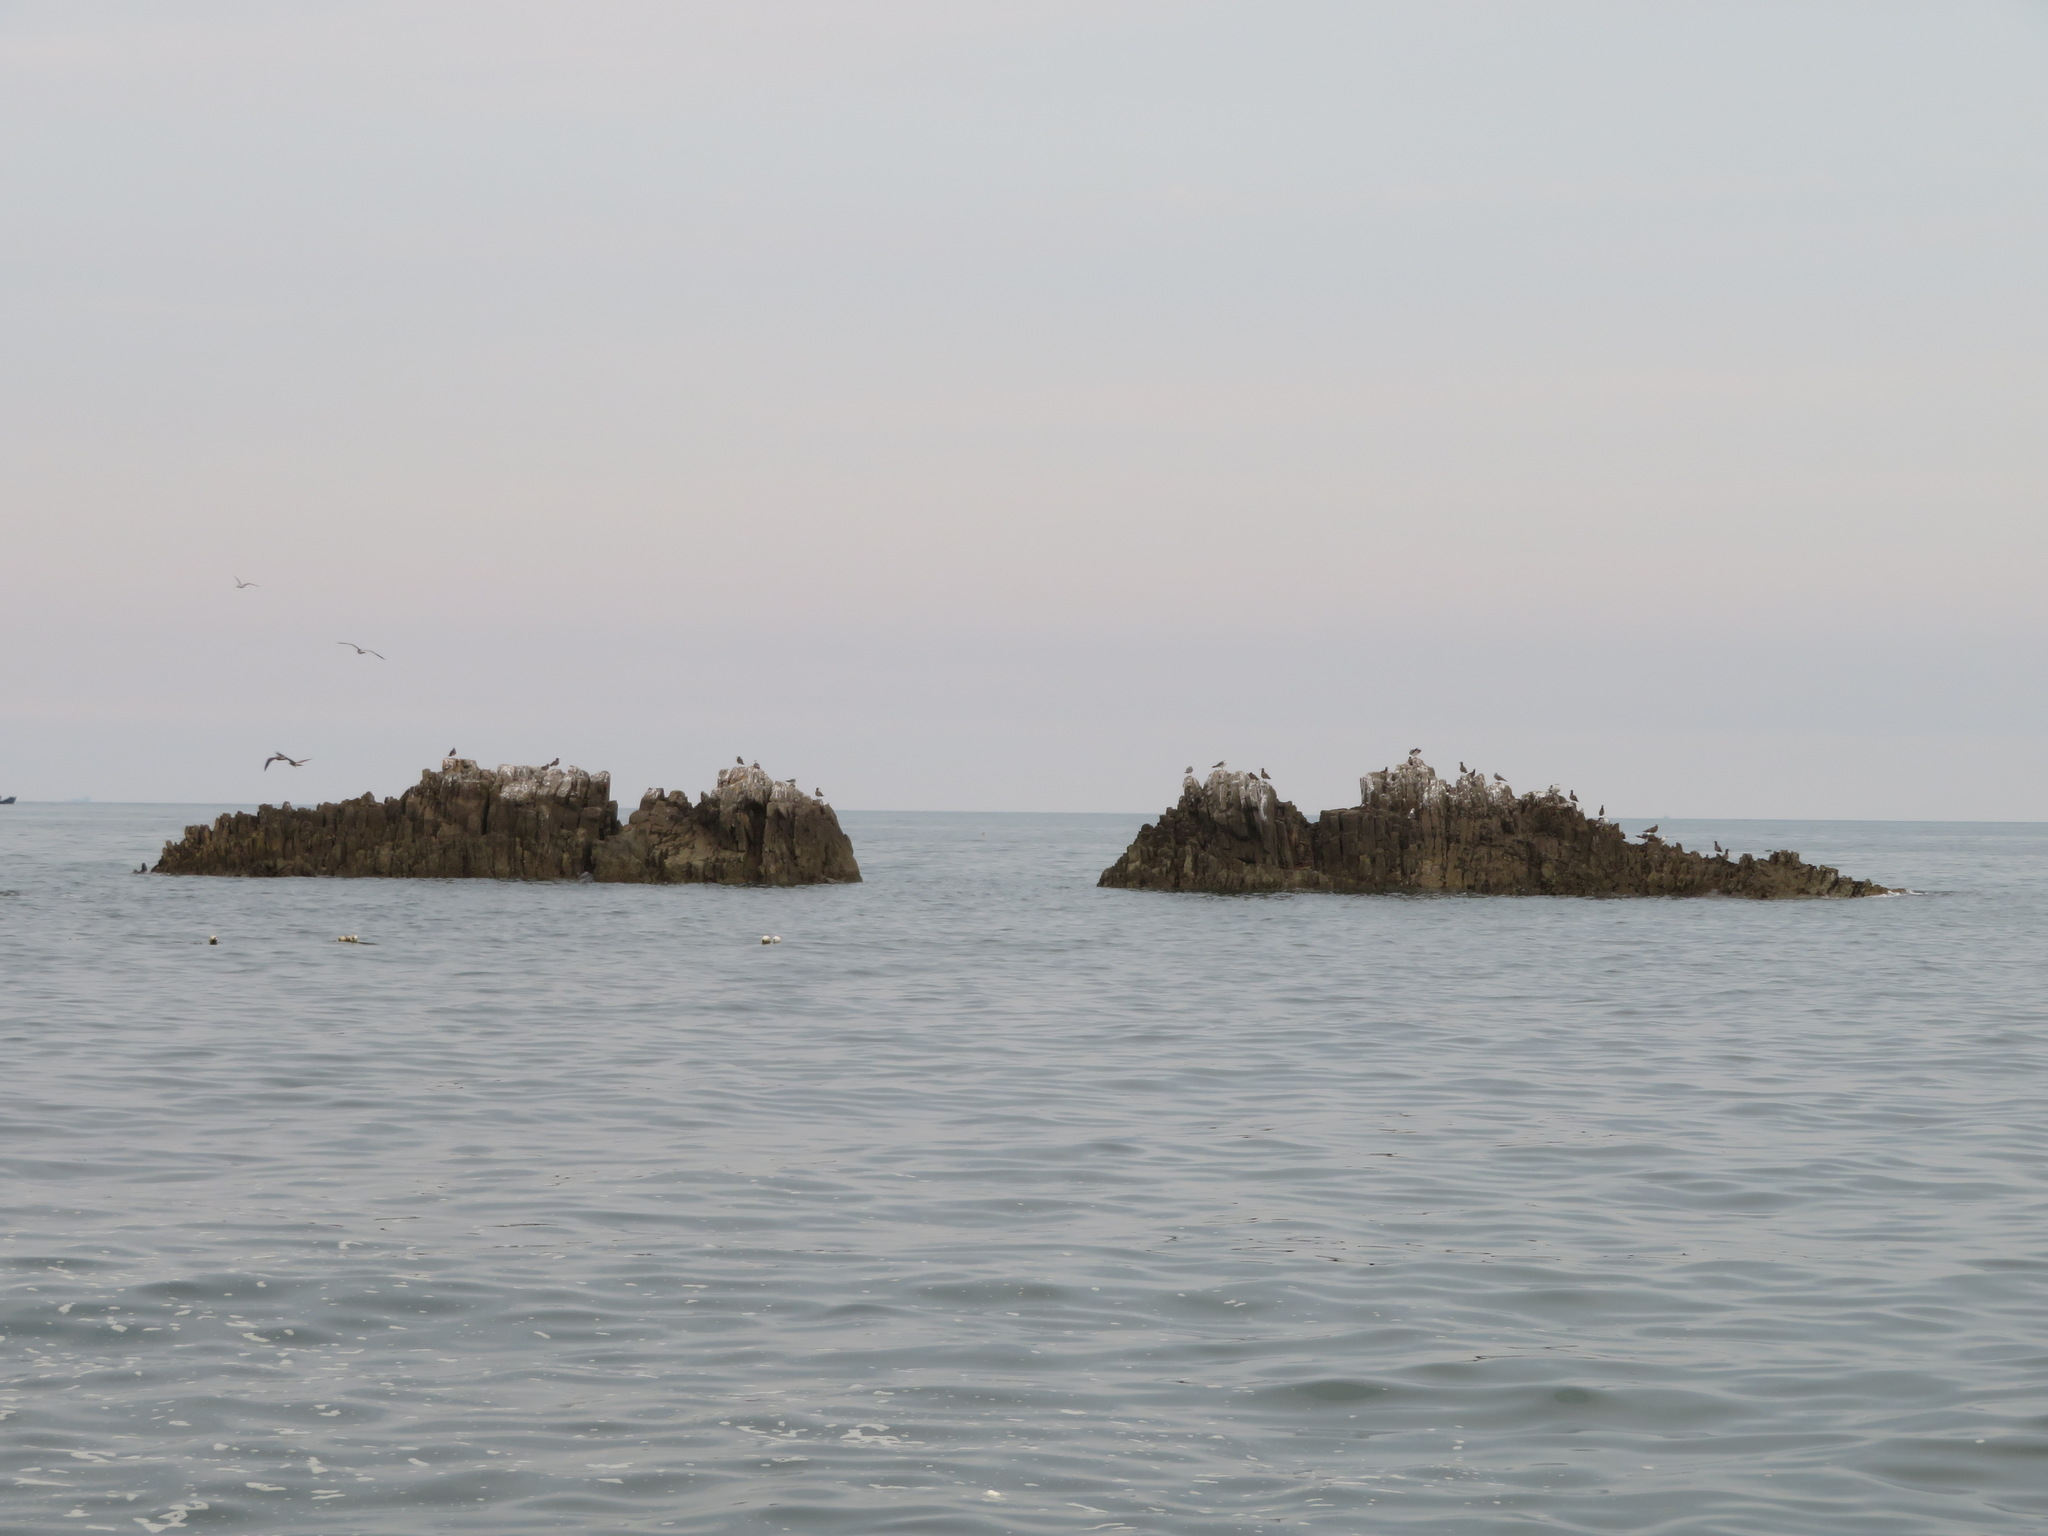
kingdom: Animalia
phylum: Chordata
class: Aves
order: Charadriiformes
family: Laridae
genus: Larus
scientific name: Larus crassirostris
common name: Black-tailed gull
